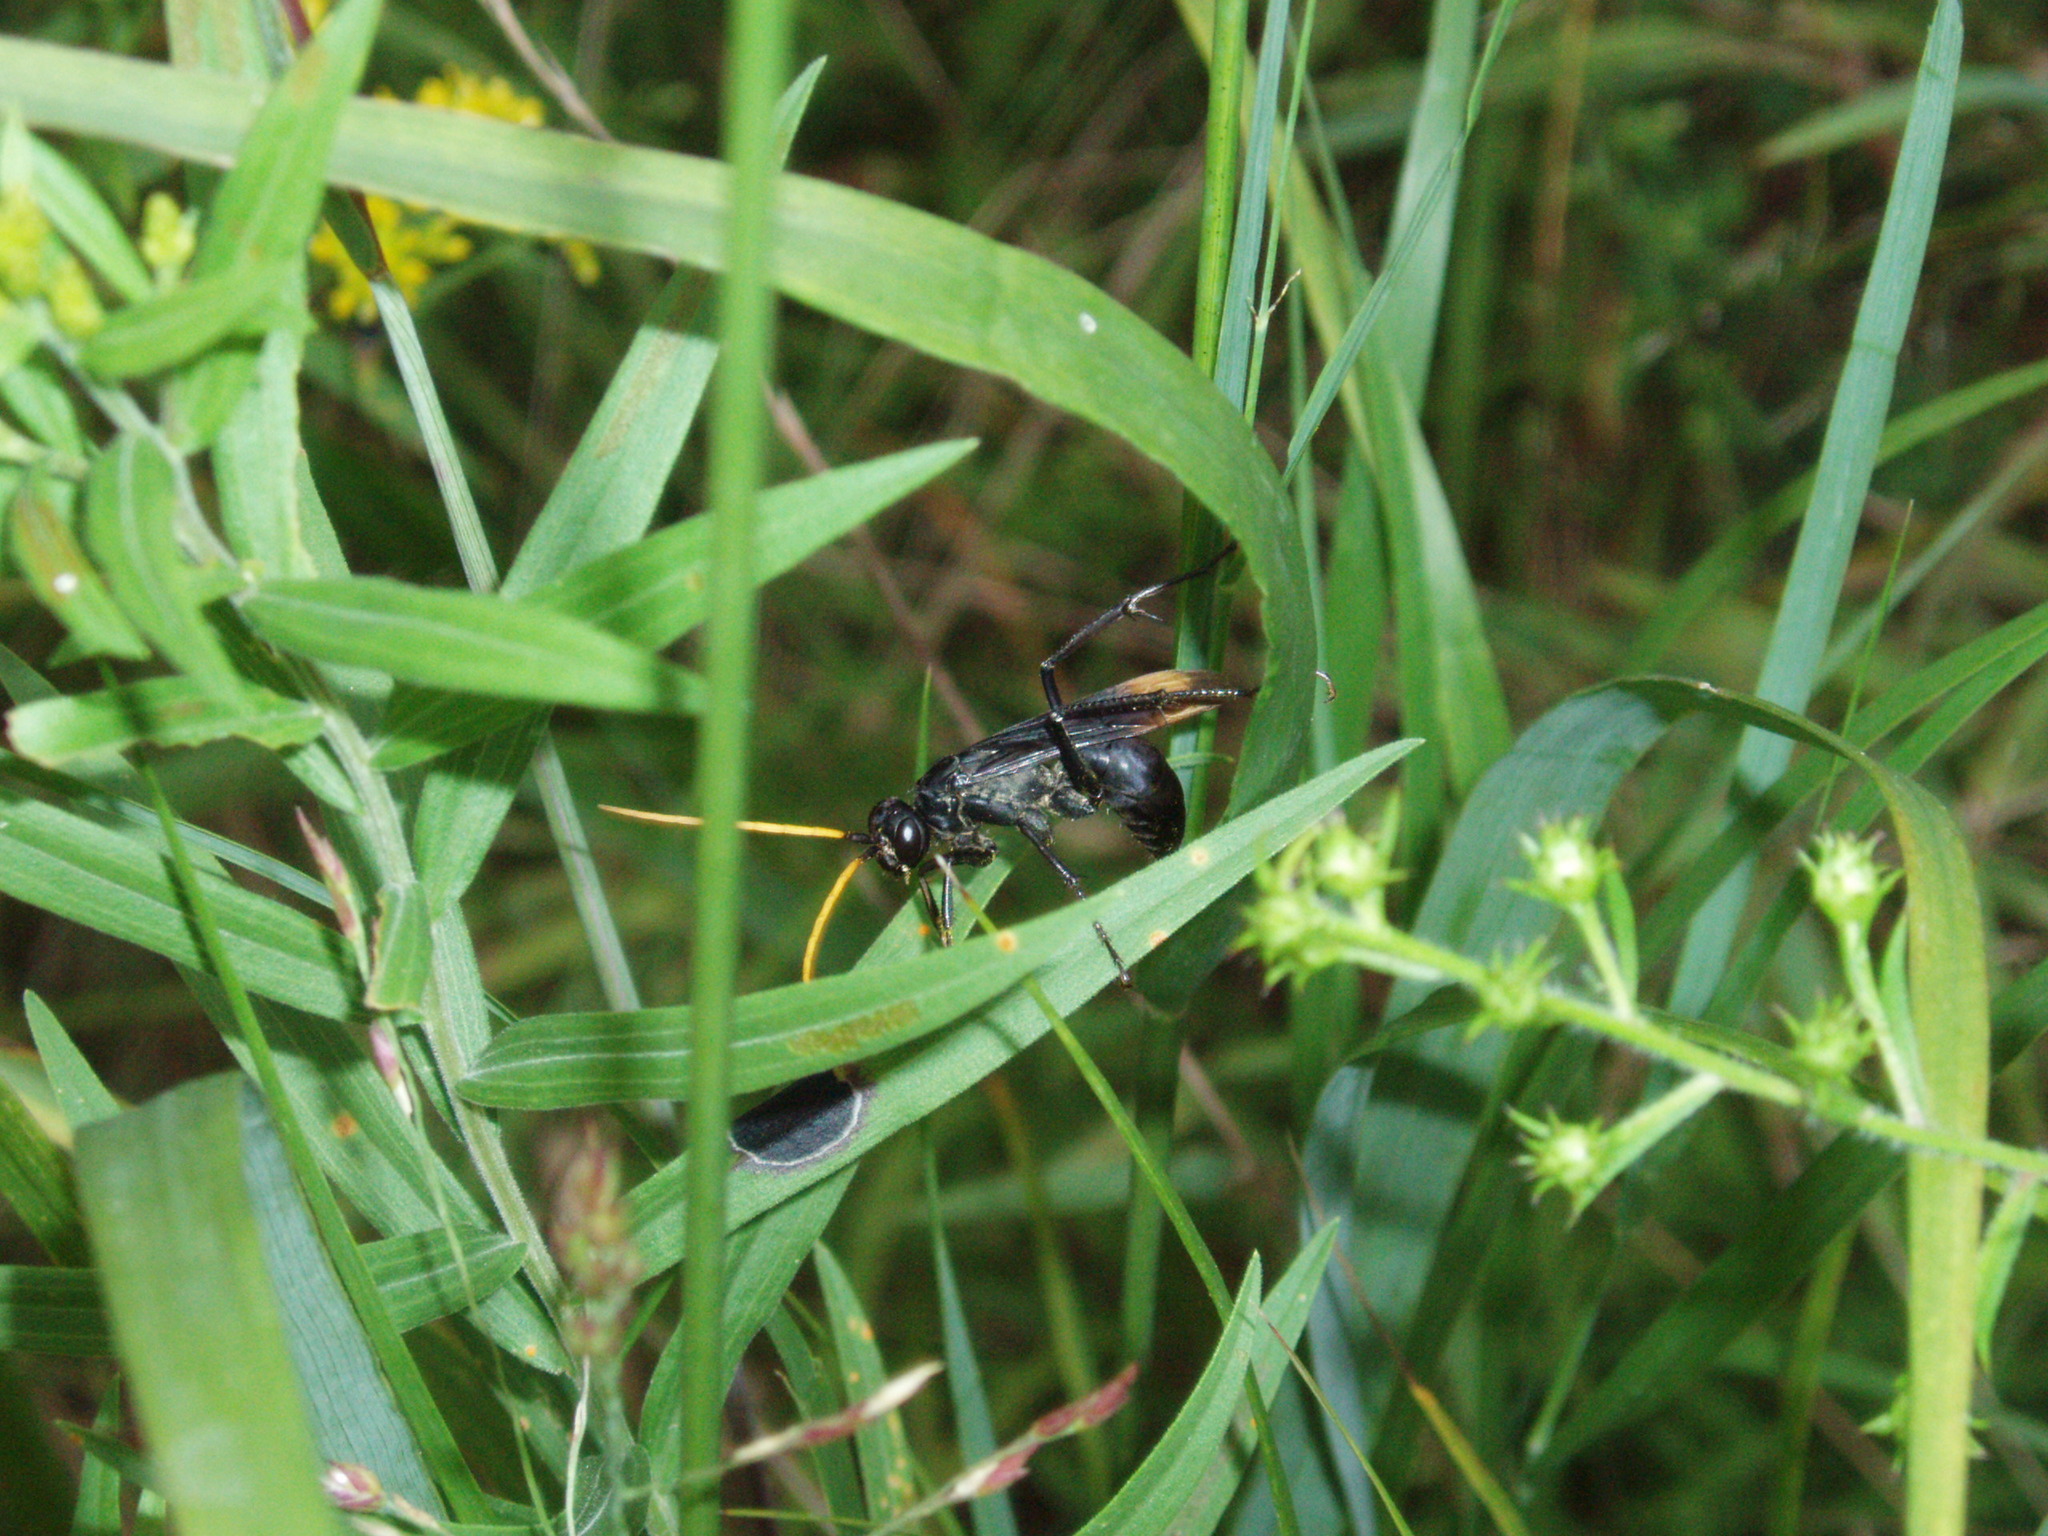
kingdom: Animalia
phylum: Arthropoda
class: Insecta
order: Hymenoptera
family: Pompilidae
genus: Entypus
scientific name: Entypus unifasciatus
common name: Eastern tawny-horned spider wasp
